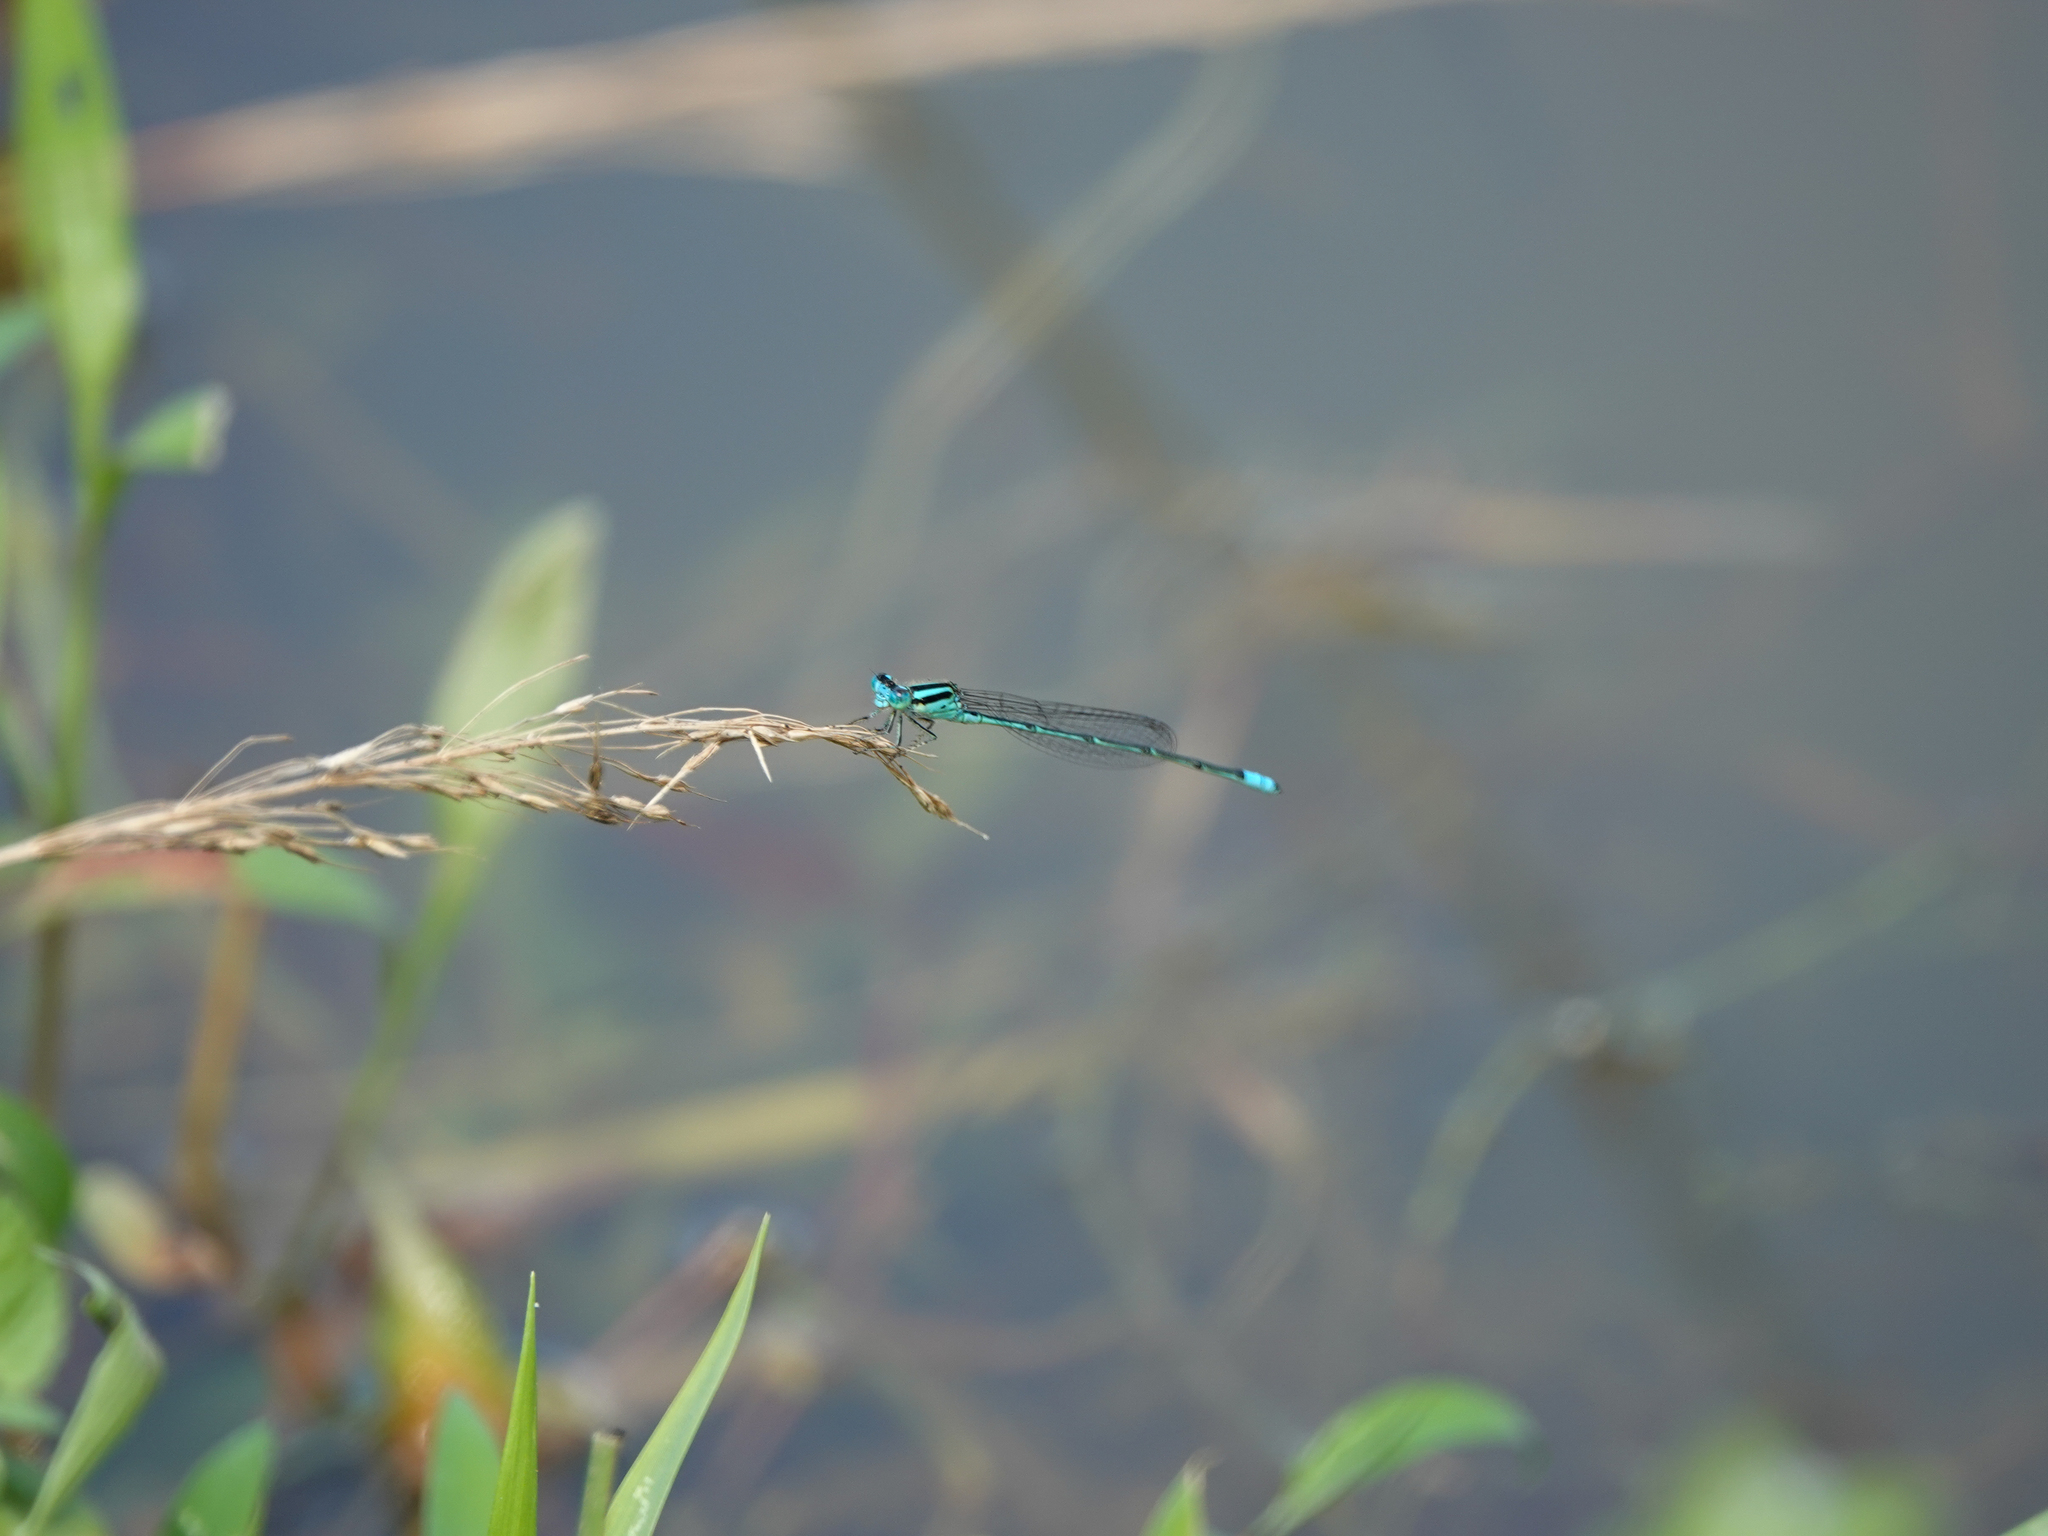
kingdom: Animalia
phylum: Arthropoda
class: Insecta
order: Odonata
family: Coenagrionidae
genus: Pseudagrion
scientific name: Pseudagrion australasiae
